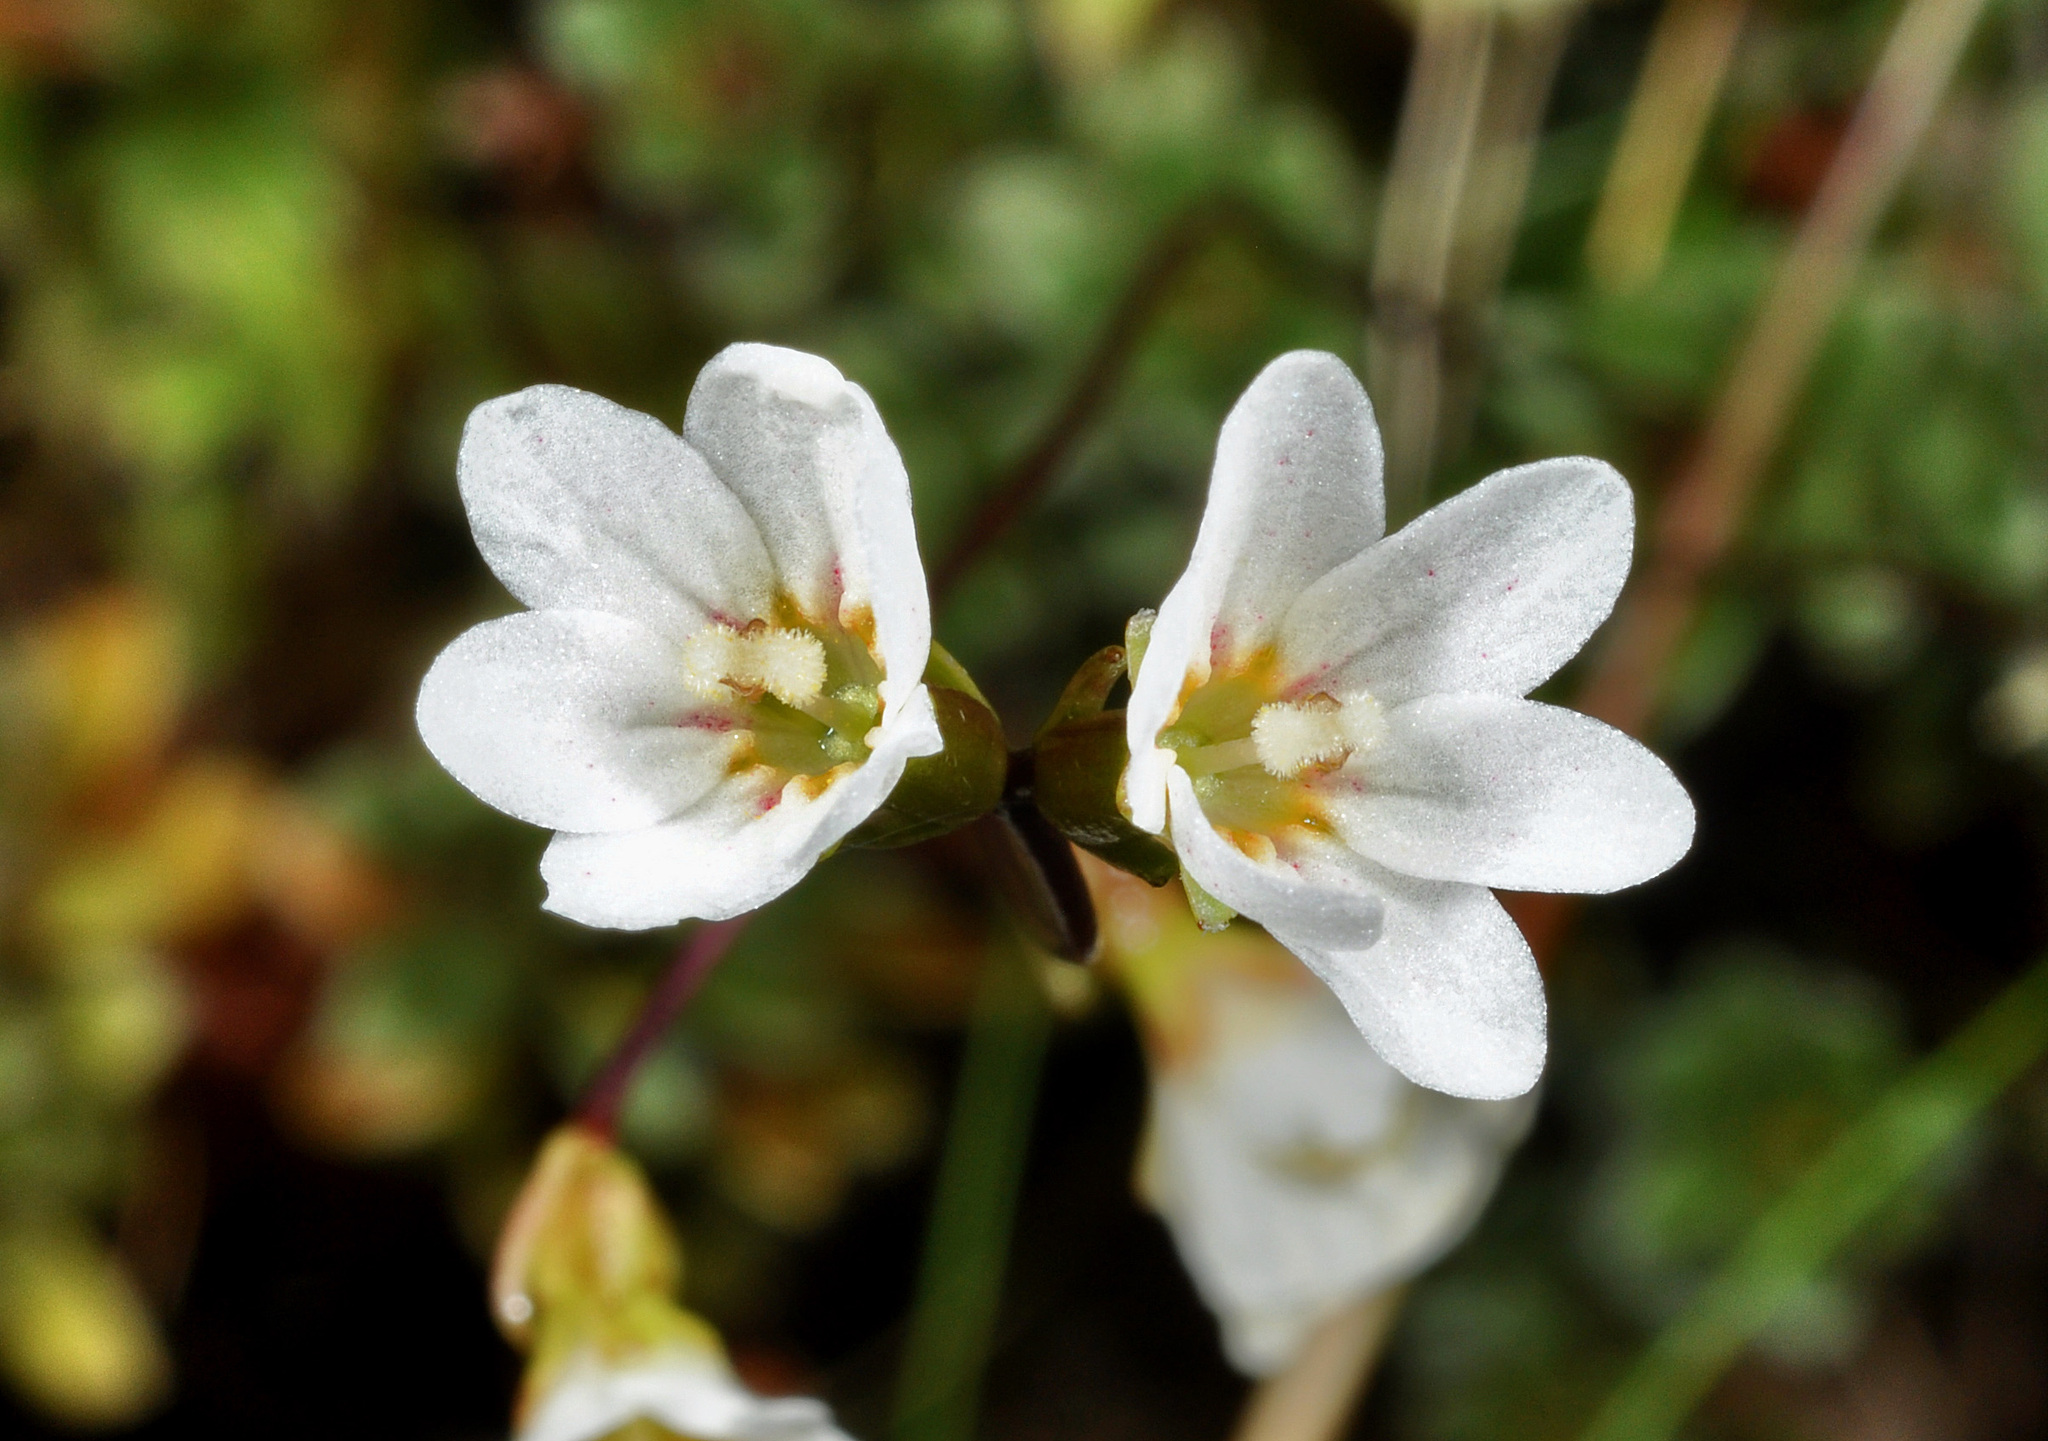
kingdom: Plantae
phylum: Tracheophyta
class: Magnoliopsida
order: Asterales
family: Stylidiaceae
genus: Forstera
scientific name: Forstera tenella
